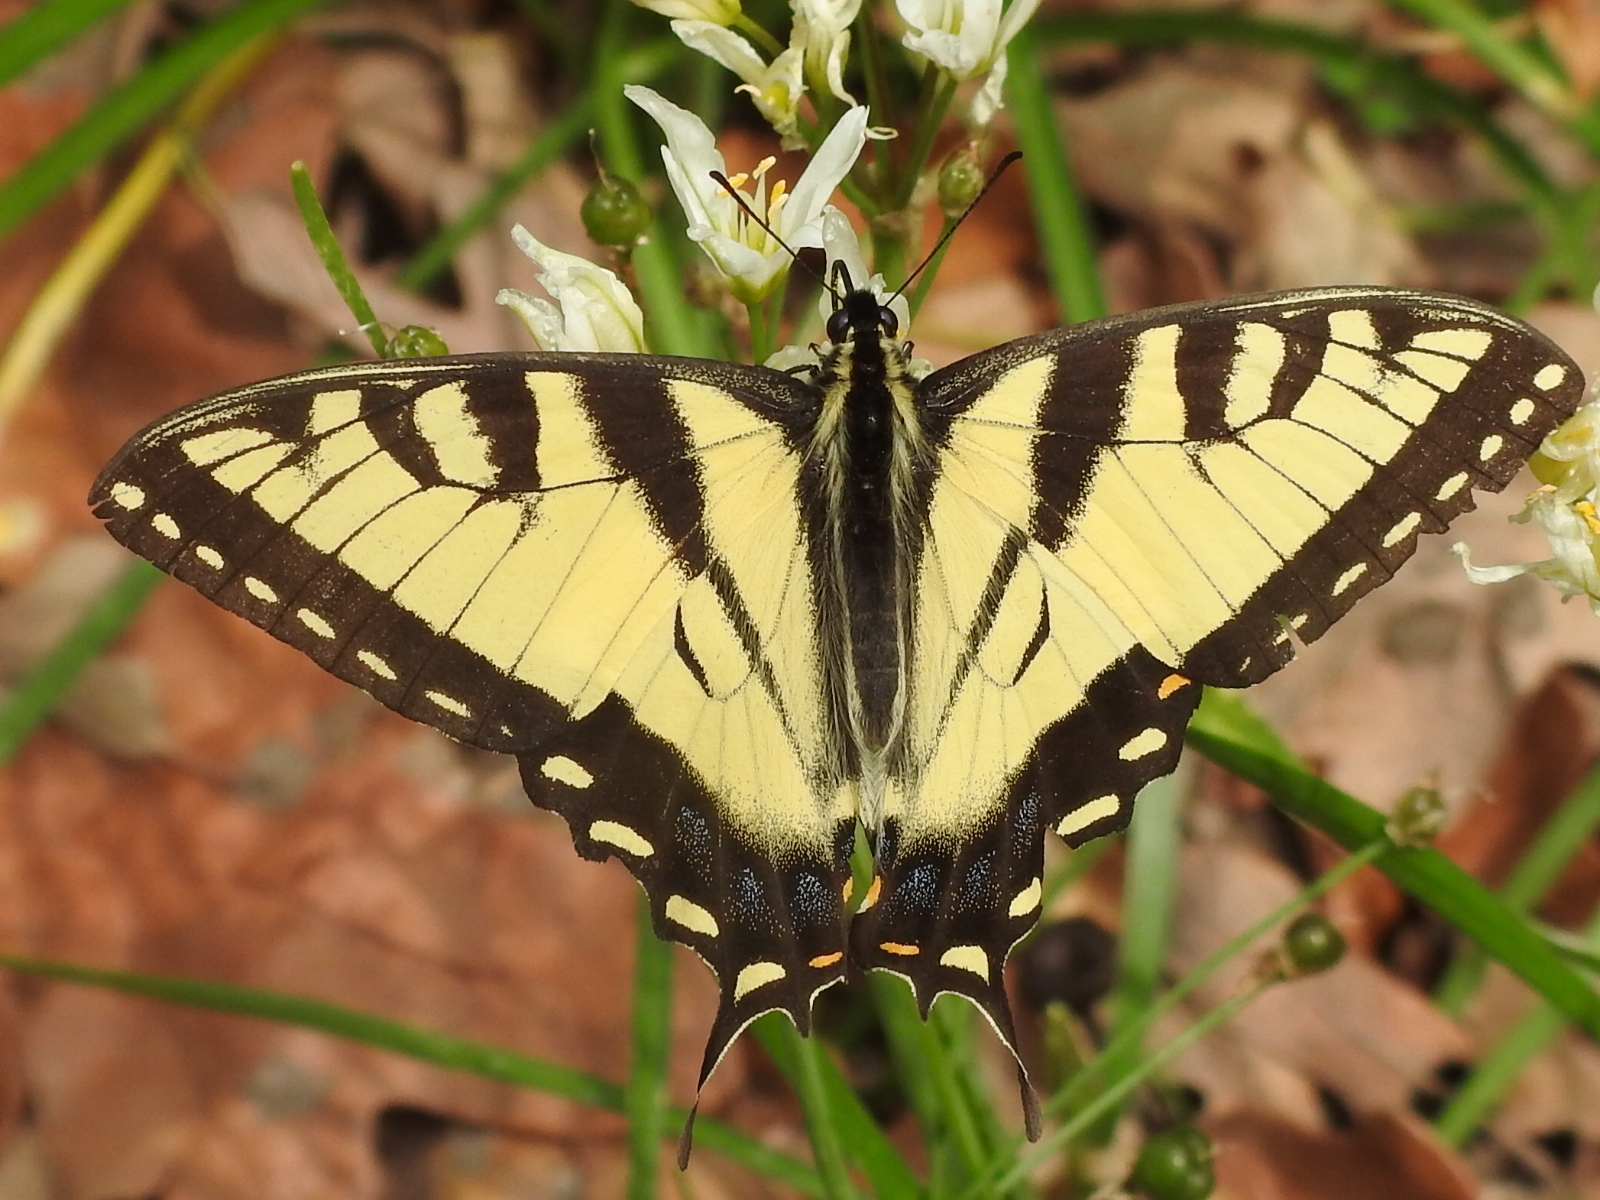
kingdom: Animalia
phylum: Arthropoda
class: Insecta
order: Lepidoptera
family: Papilionidae
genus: Papilio
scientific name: Papilio glaucus
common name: Tiger swallowtail
